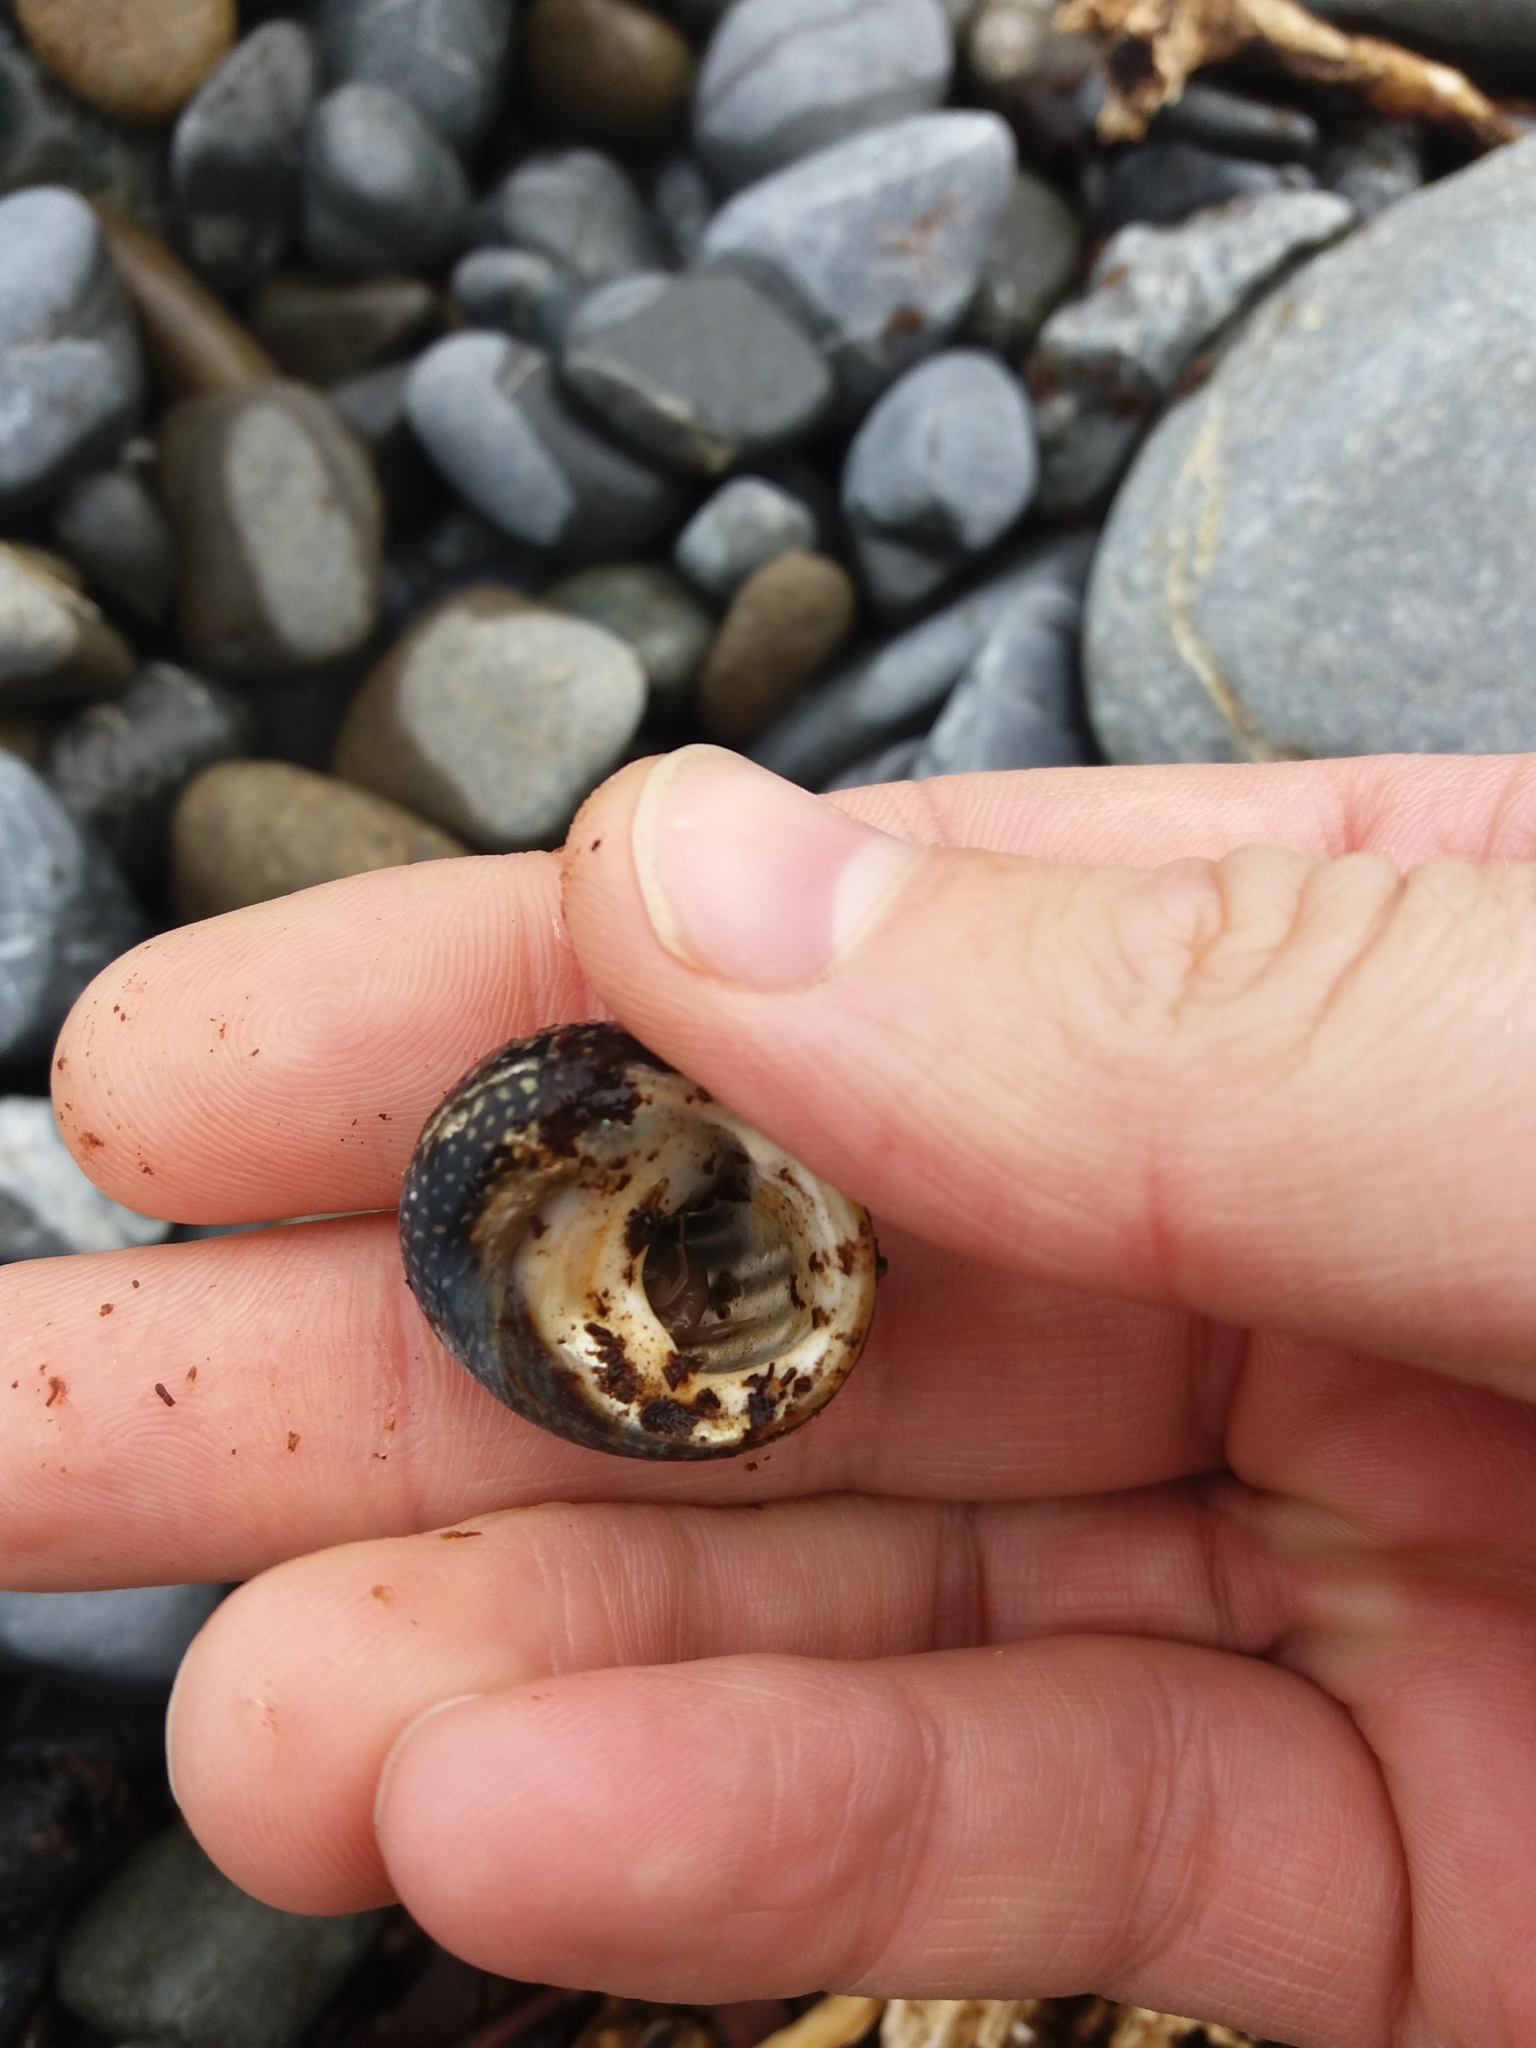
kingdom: Animalia
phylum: Mollusca
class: Gastropoda
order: Trochida
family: Trochidae
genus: Diloma
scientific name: Diloma aethiops
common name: Scorched monodont
